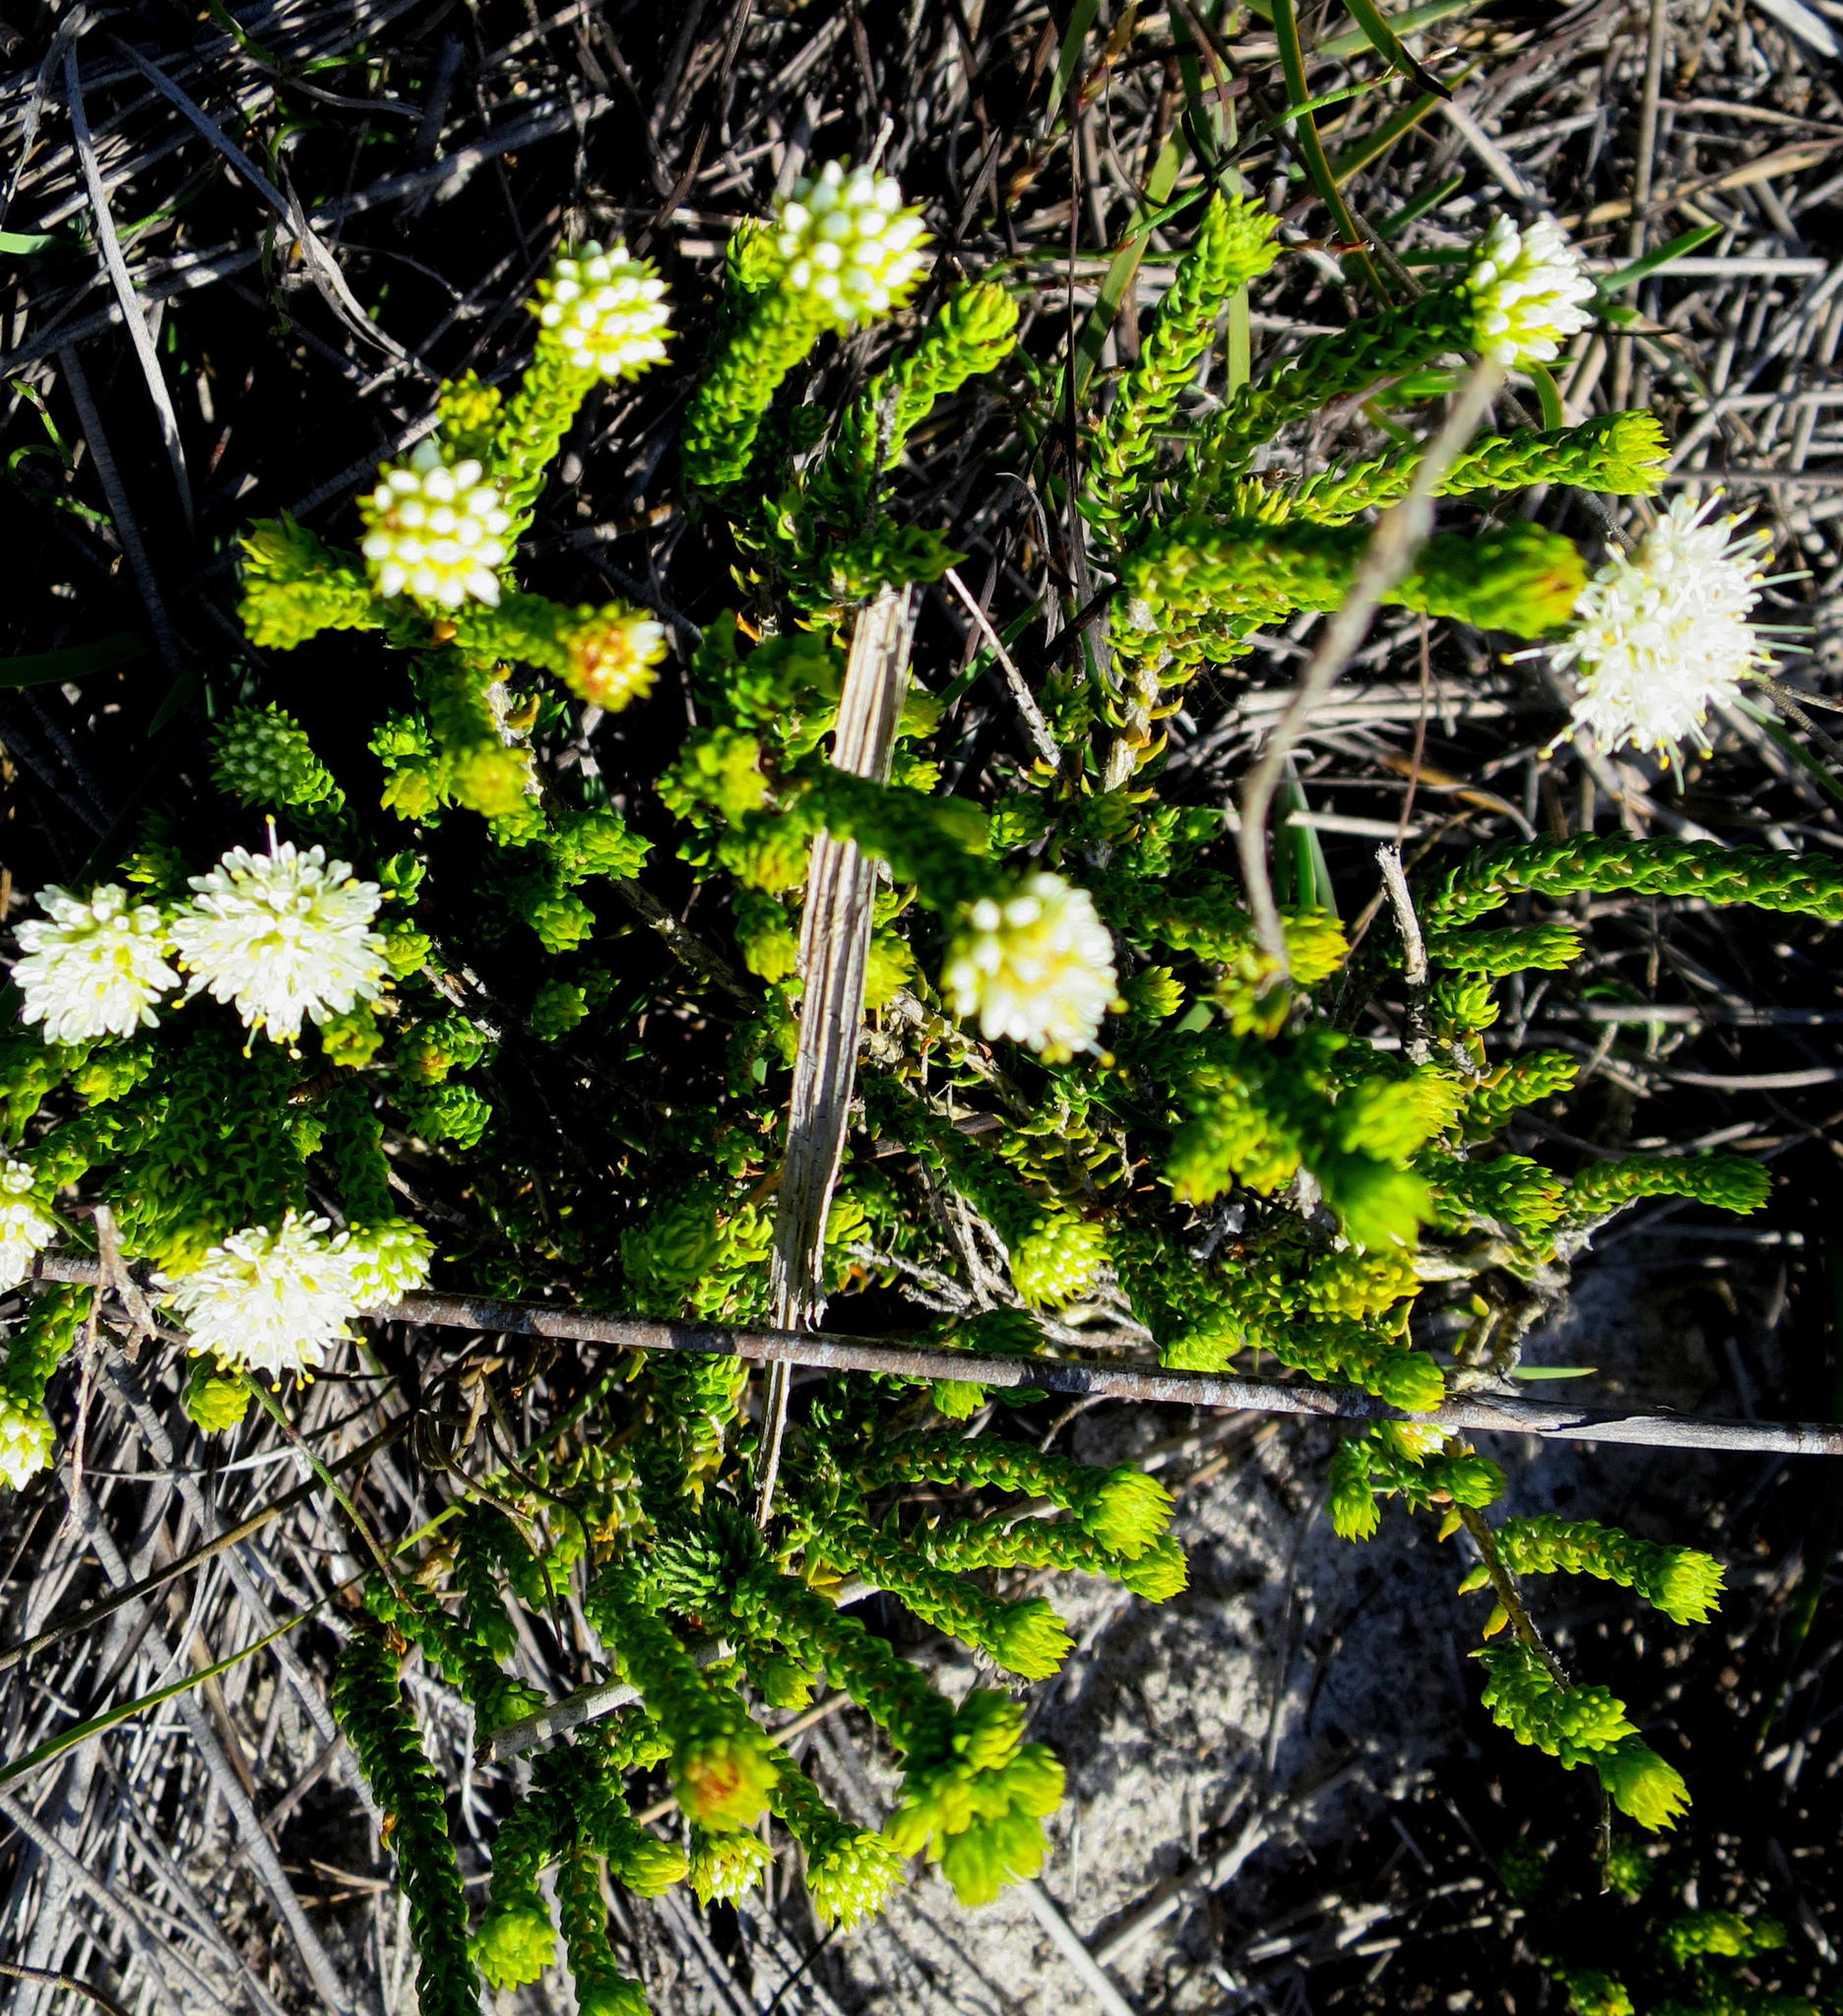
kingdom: Plantae
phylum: Tracheophyta
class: Magnoliopsida
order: Sapindales
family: Rutaceae
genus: Agathosma
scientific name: Agathosma eriantha
